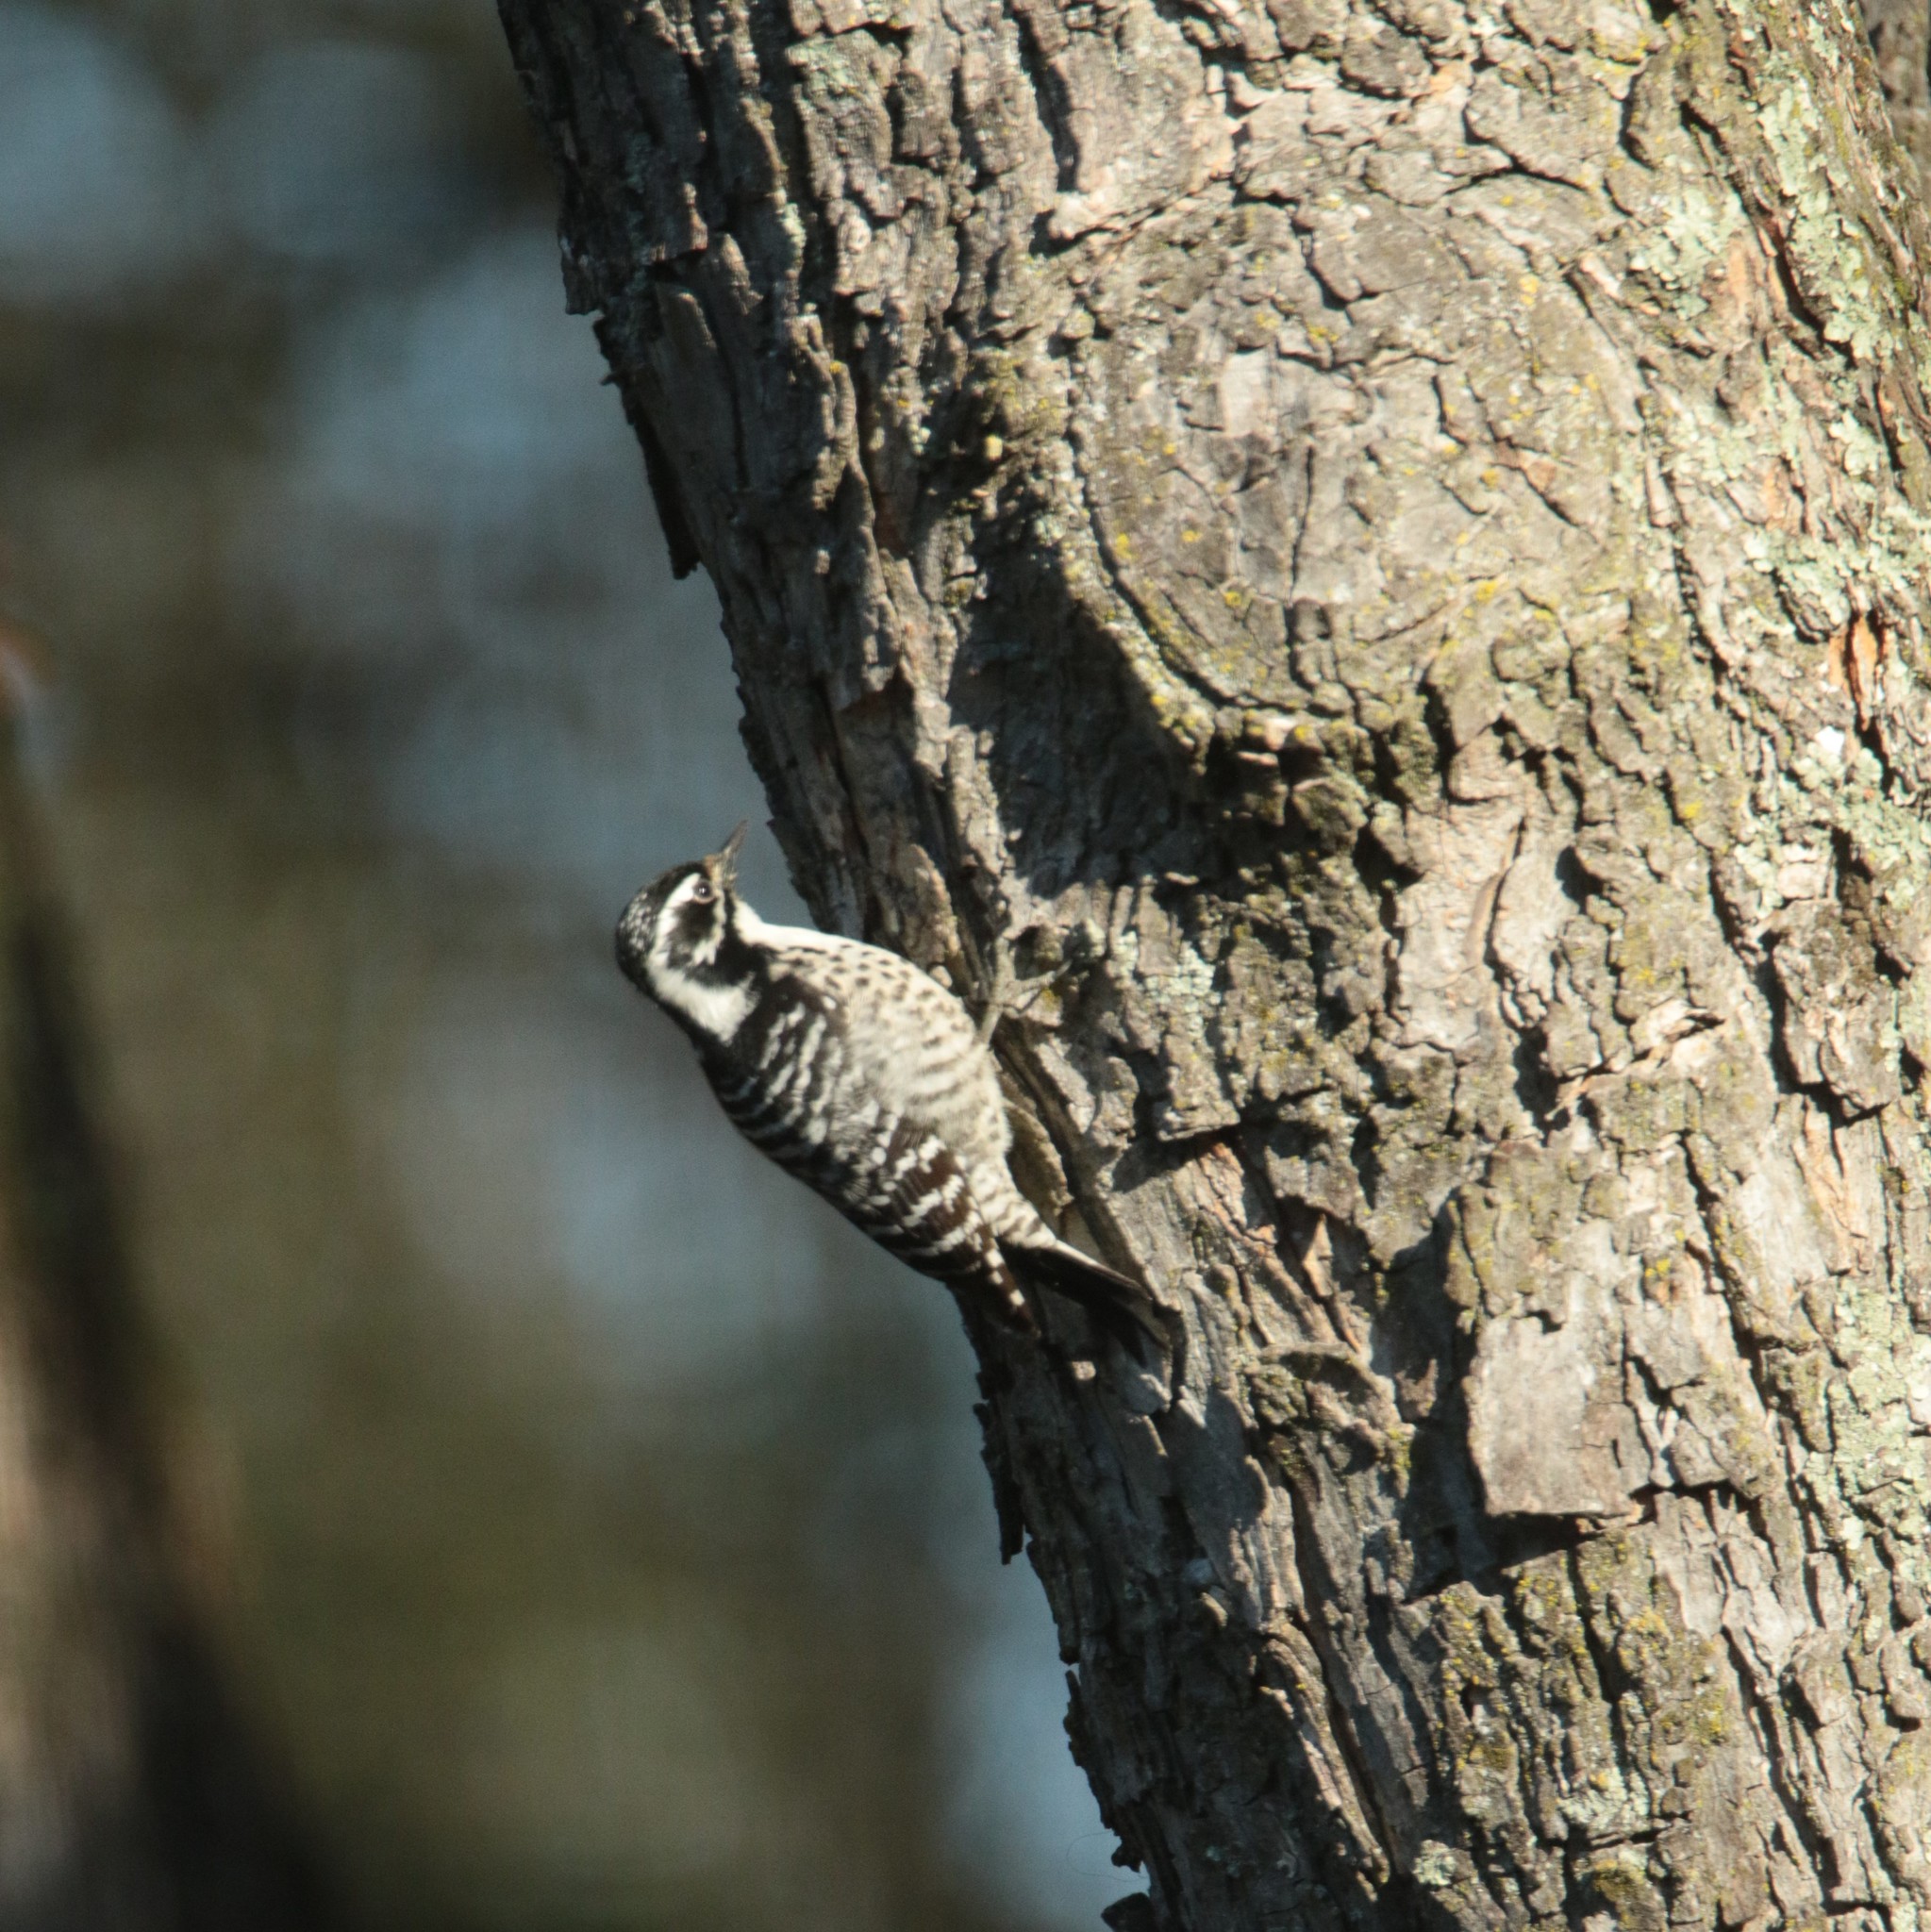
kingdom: Animalia
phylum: Chordata
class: Aves
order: Piciformes
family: Picidae
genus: Dryobates
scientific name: Dryobates nuttallii
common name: Nuttall's woodpecker
